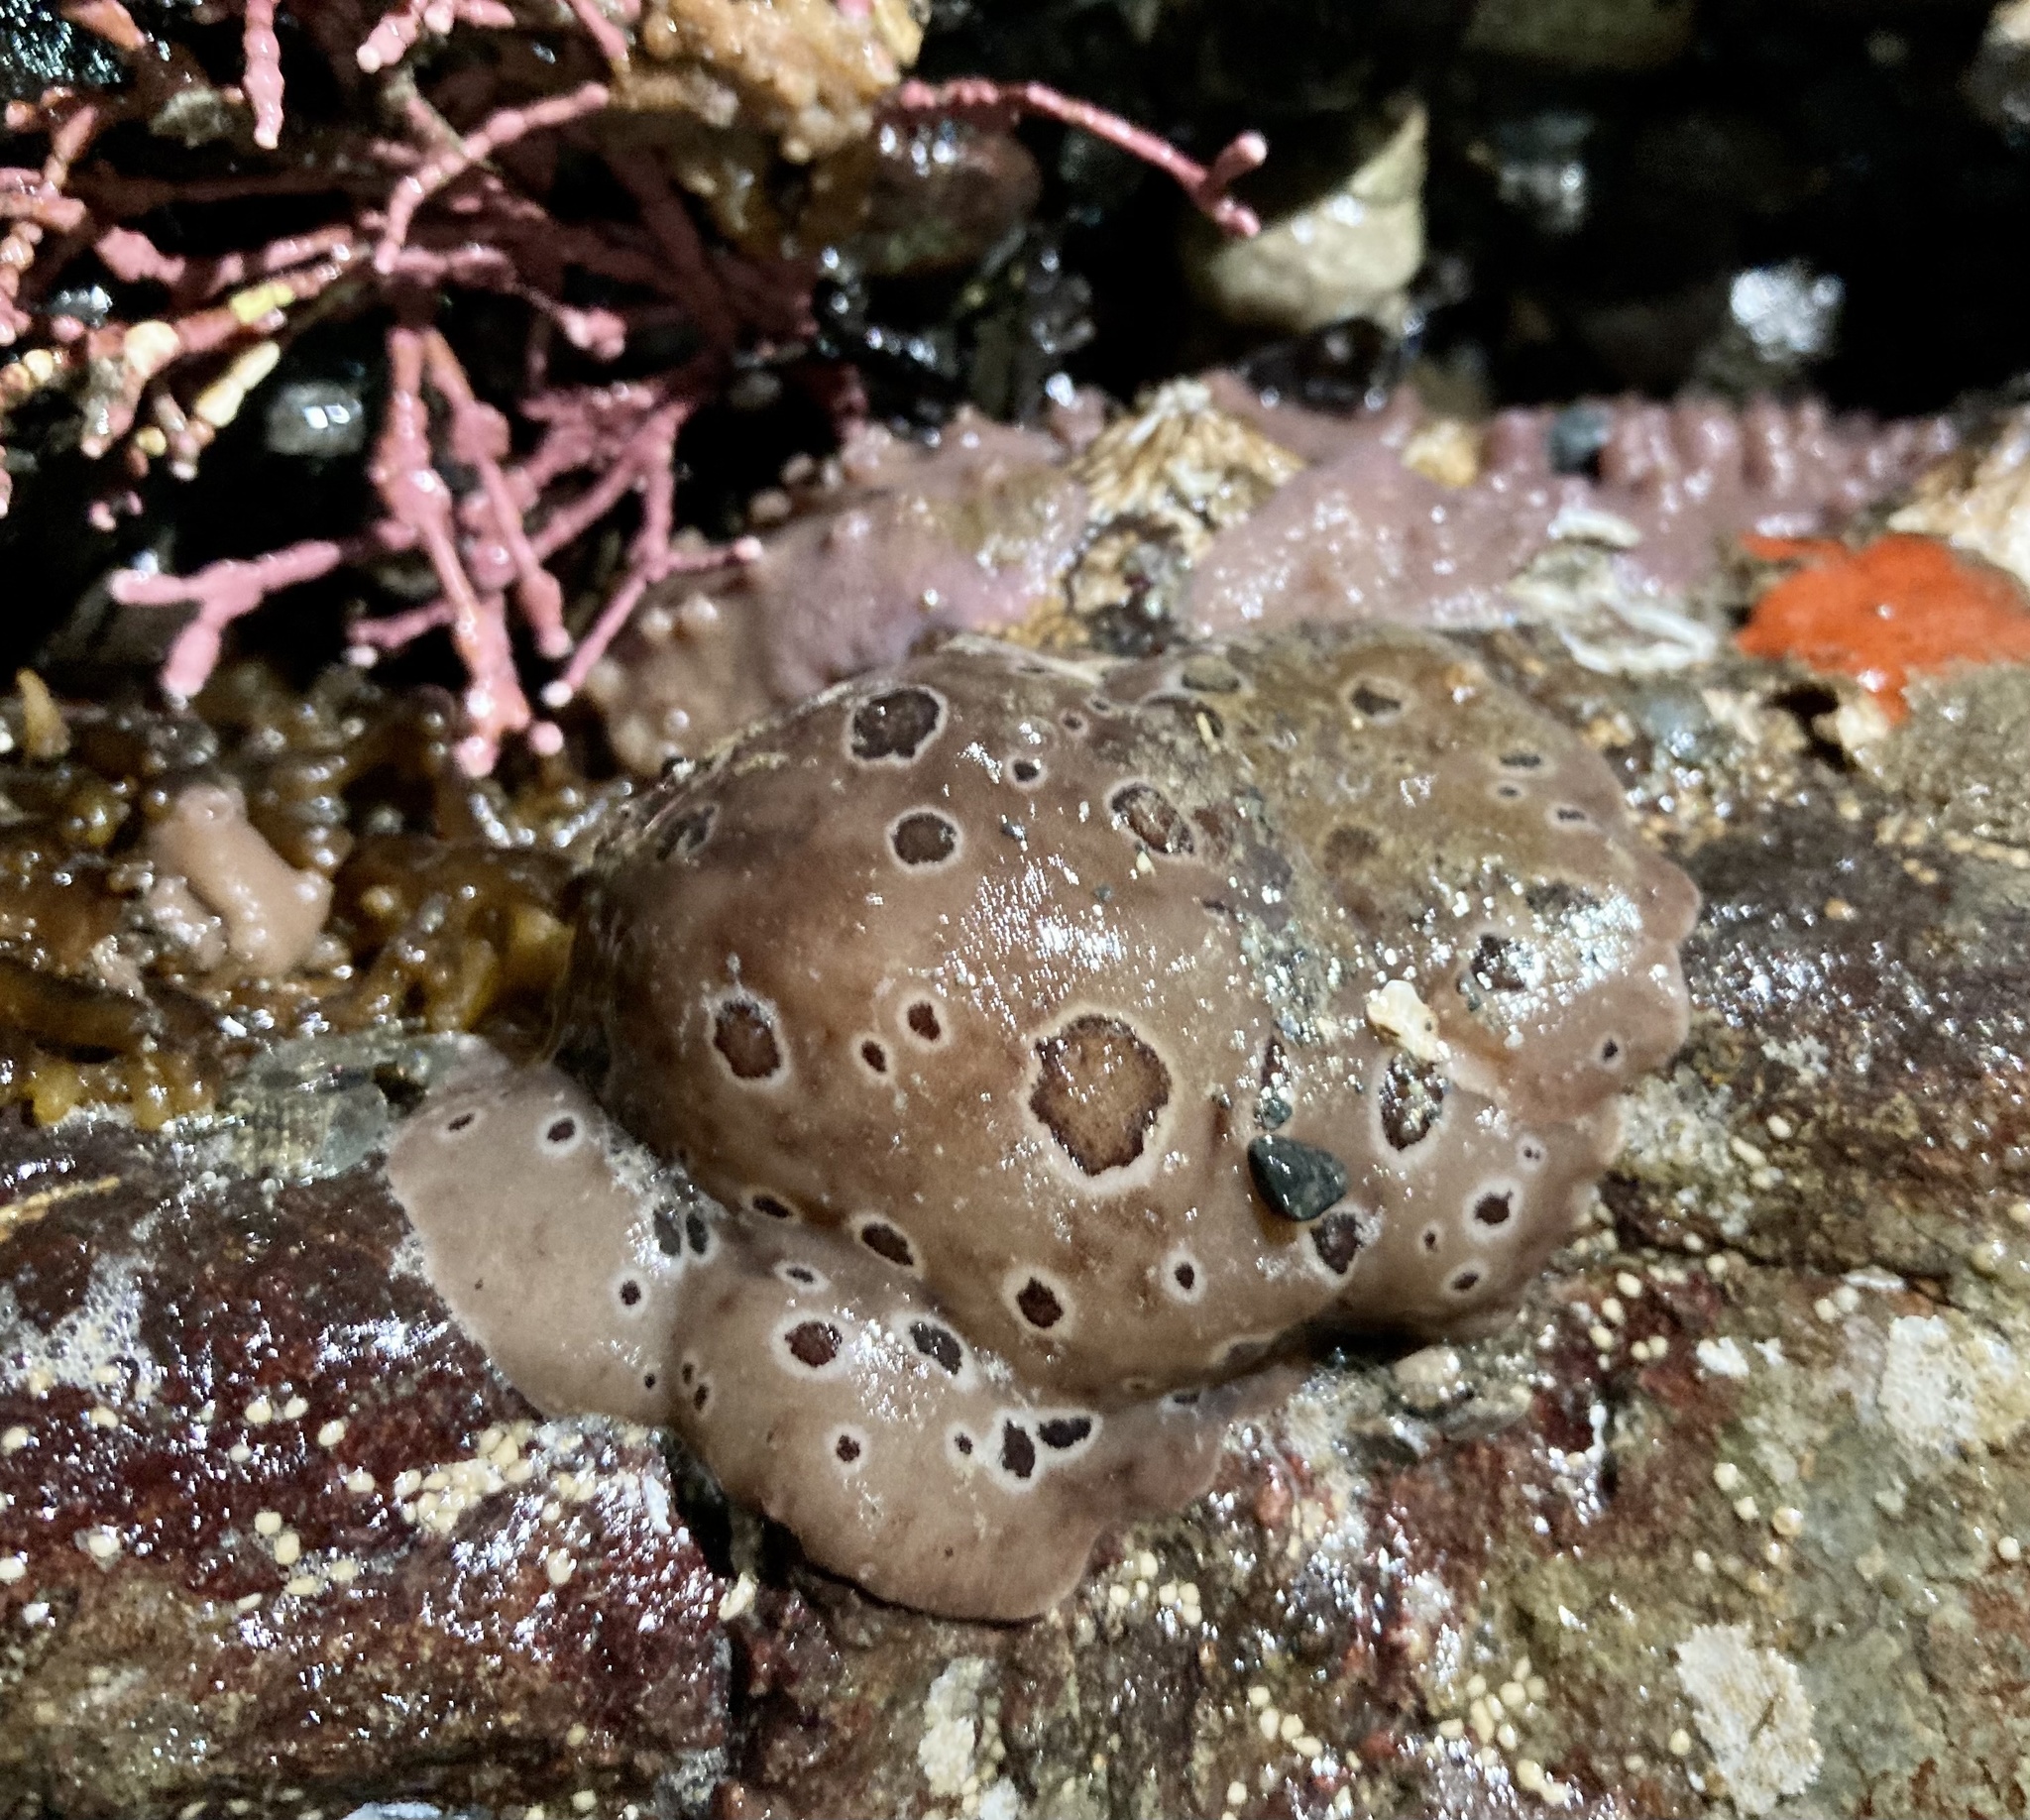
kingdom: Animalia
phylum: Mollusca
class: Gastropoda
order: Nudibranchia
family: Discodorididae
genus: Diaulula
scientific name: Diaulula odonoghuei
